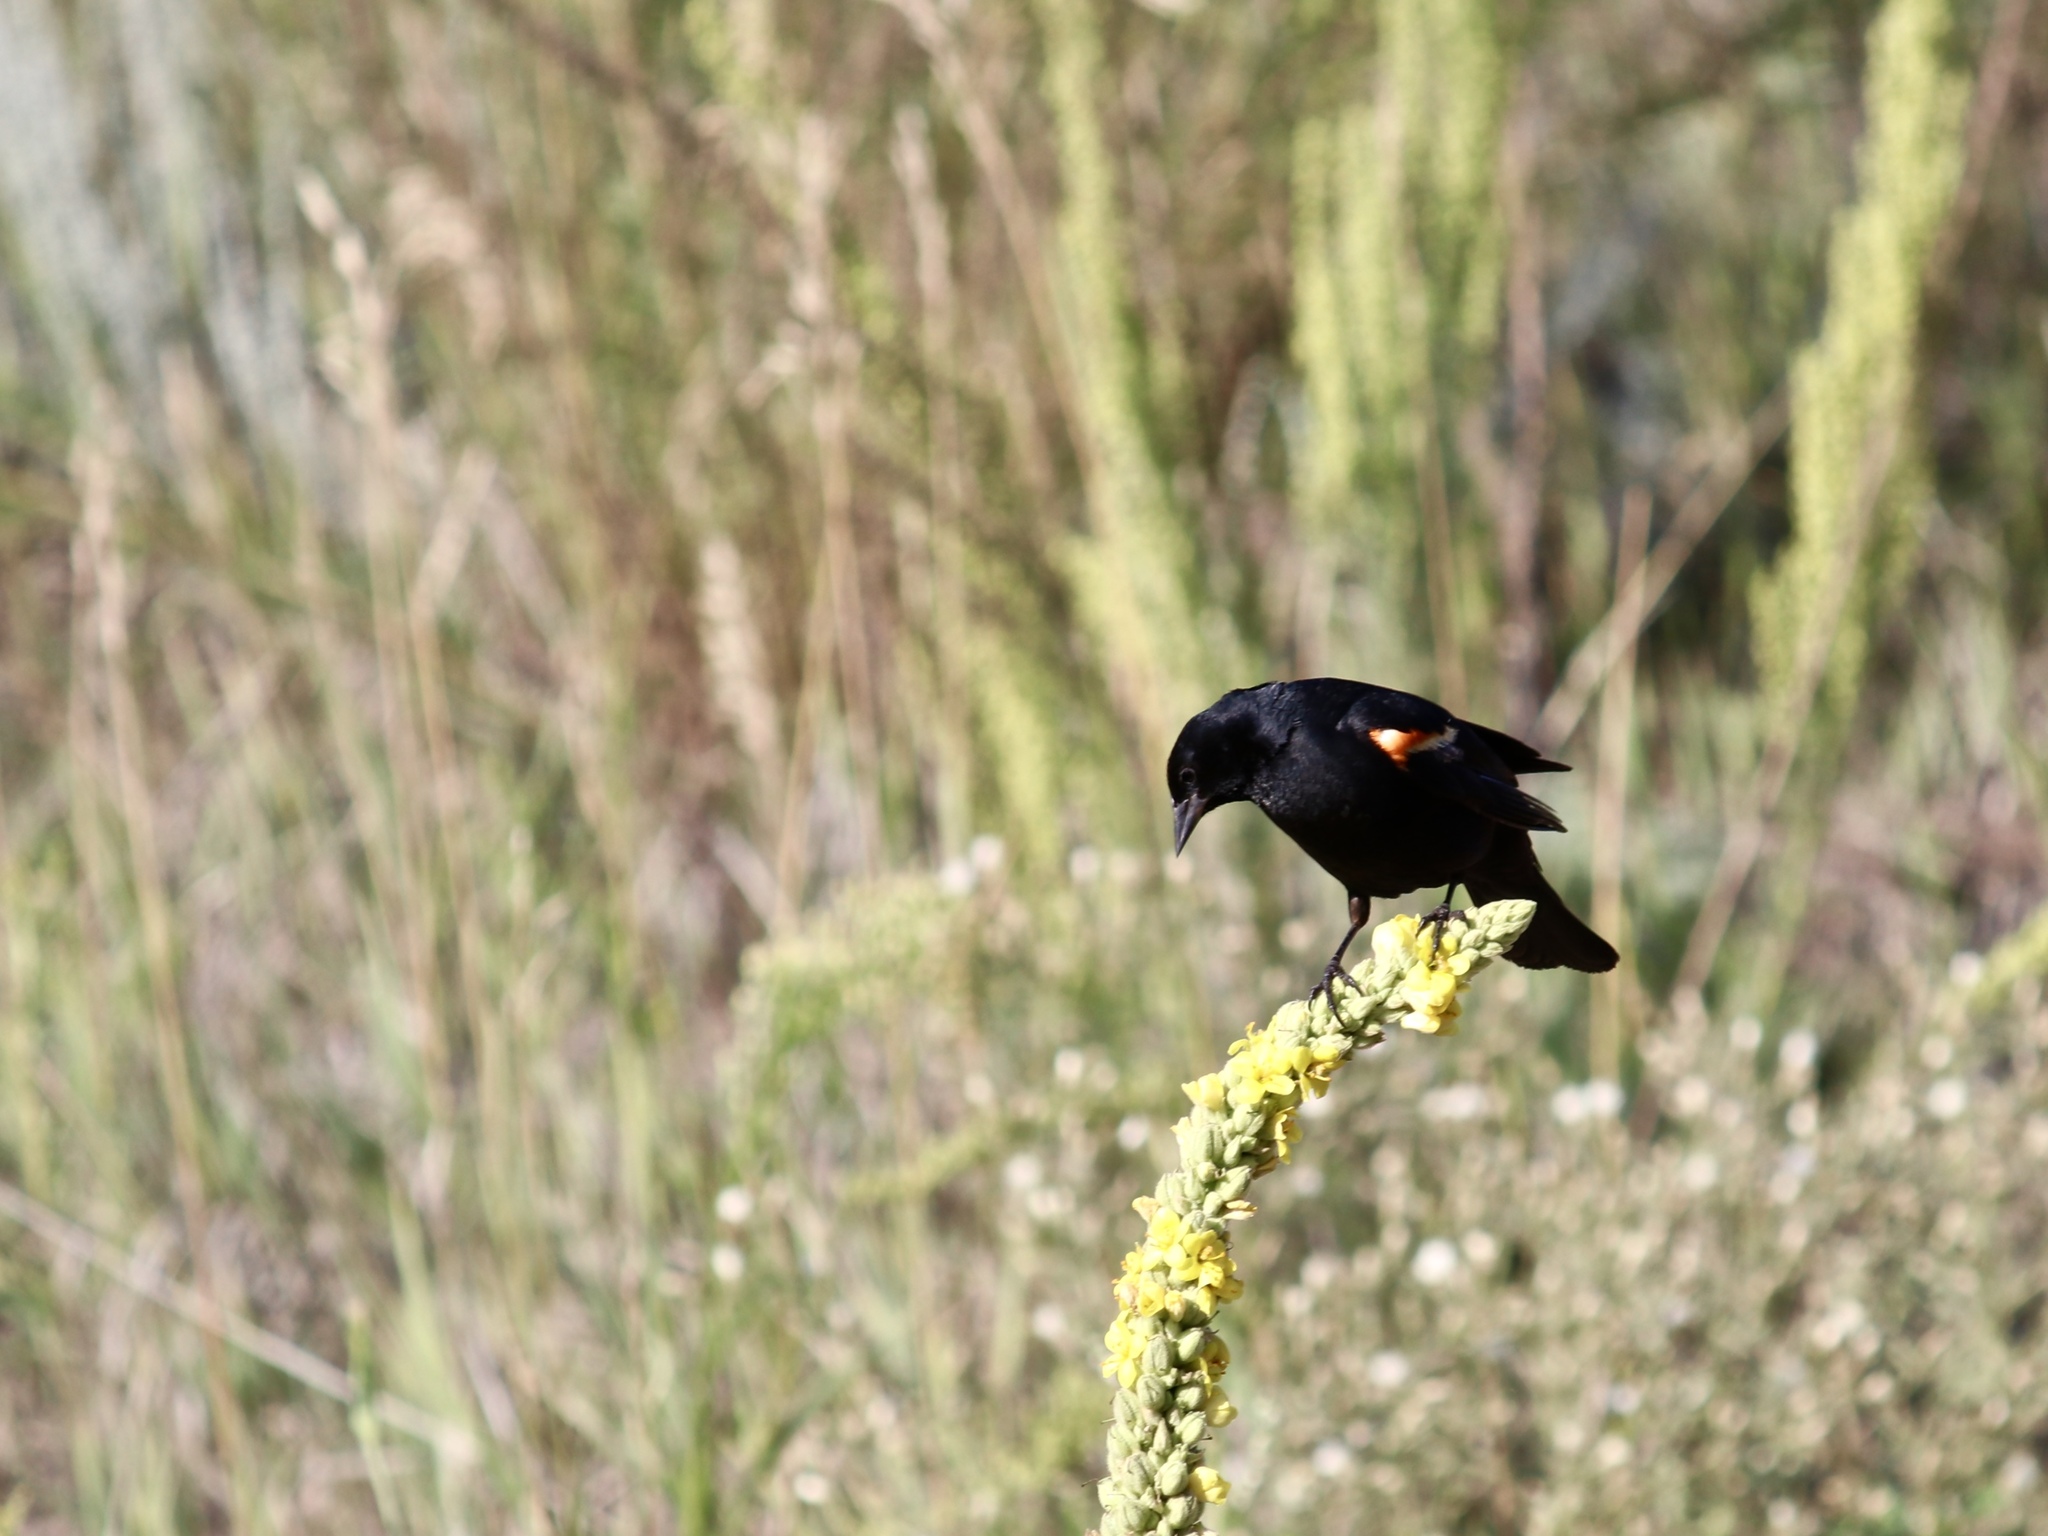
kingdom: Animalia
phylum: Chordata
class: Aves
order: Passeriformes
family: Icteridae
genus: Agelaius
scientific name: Agelaius phoeniceus
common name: Red-winged blackbird
